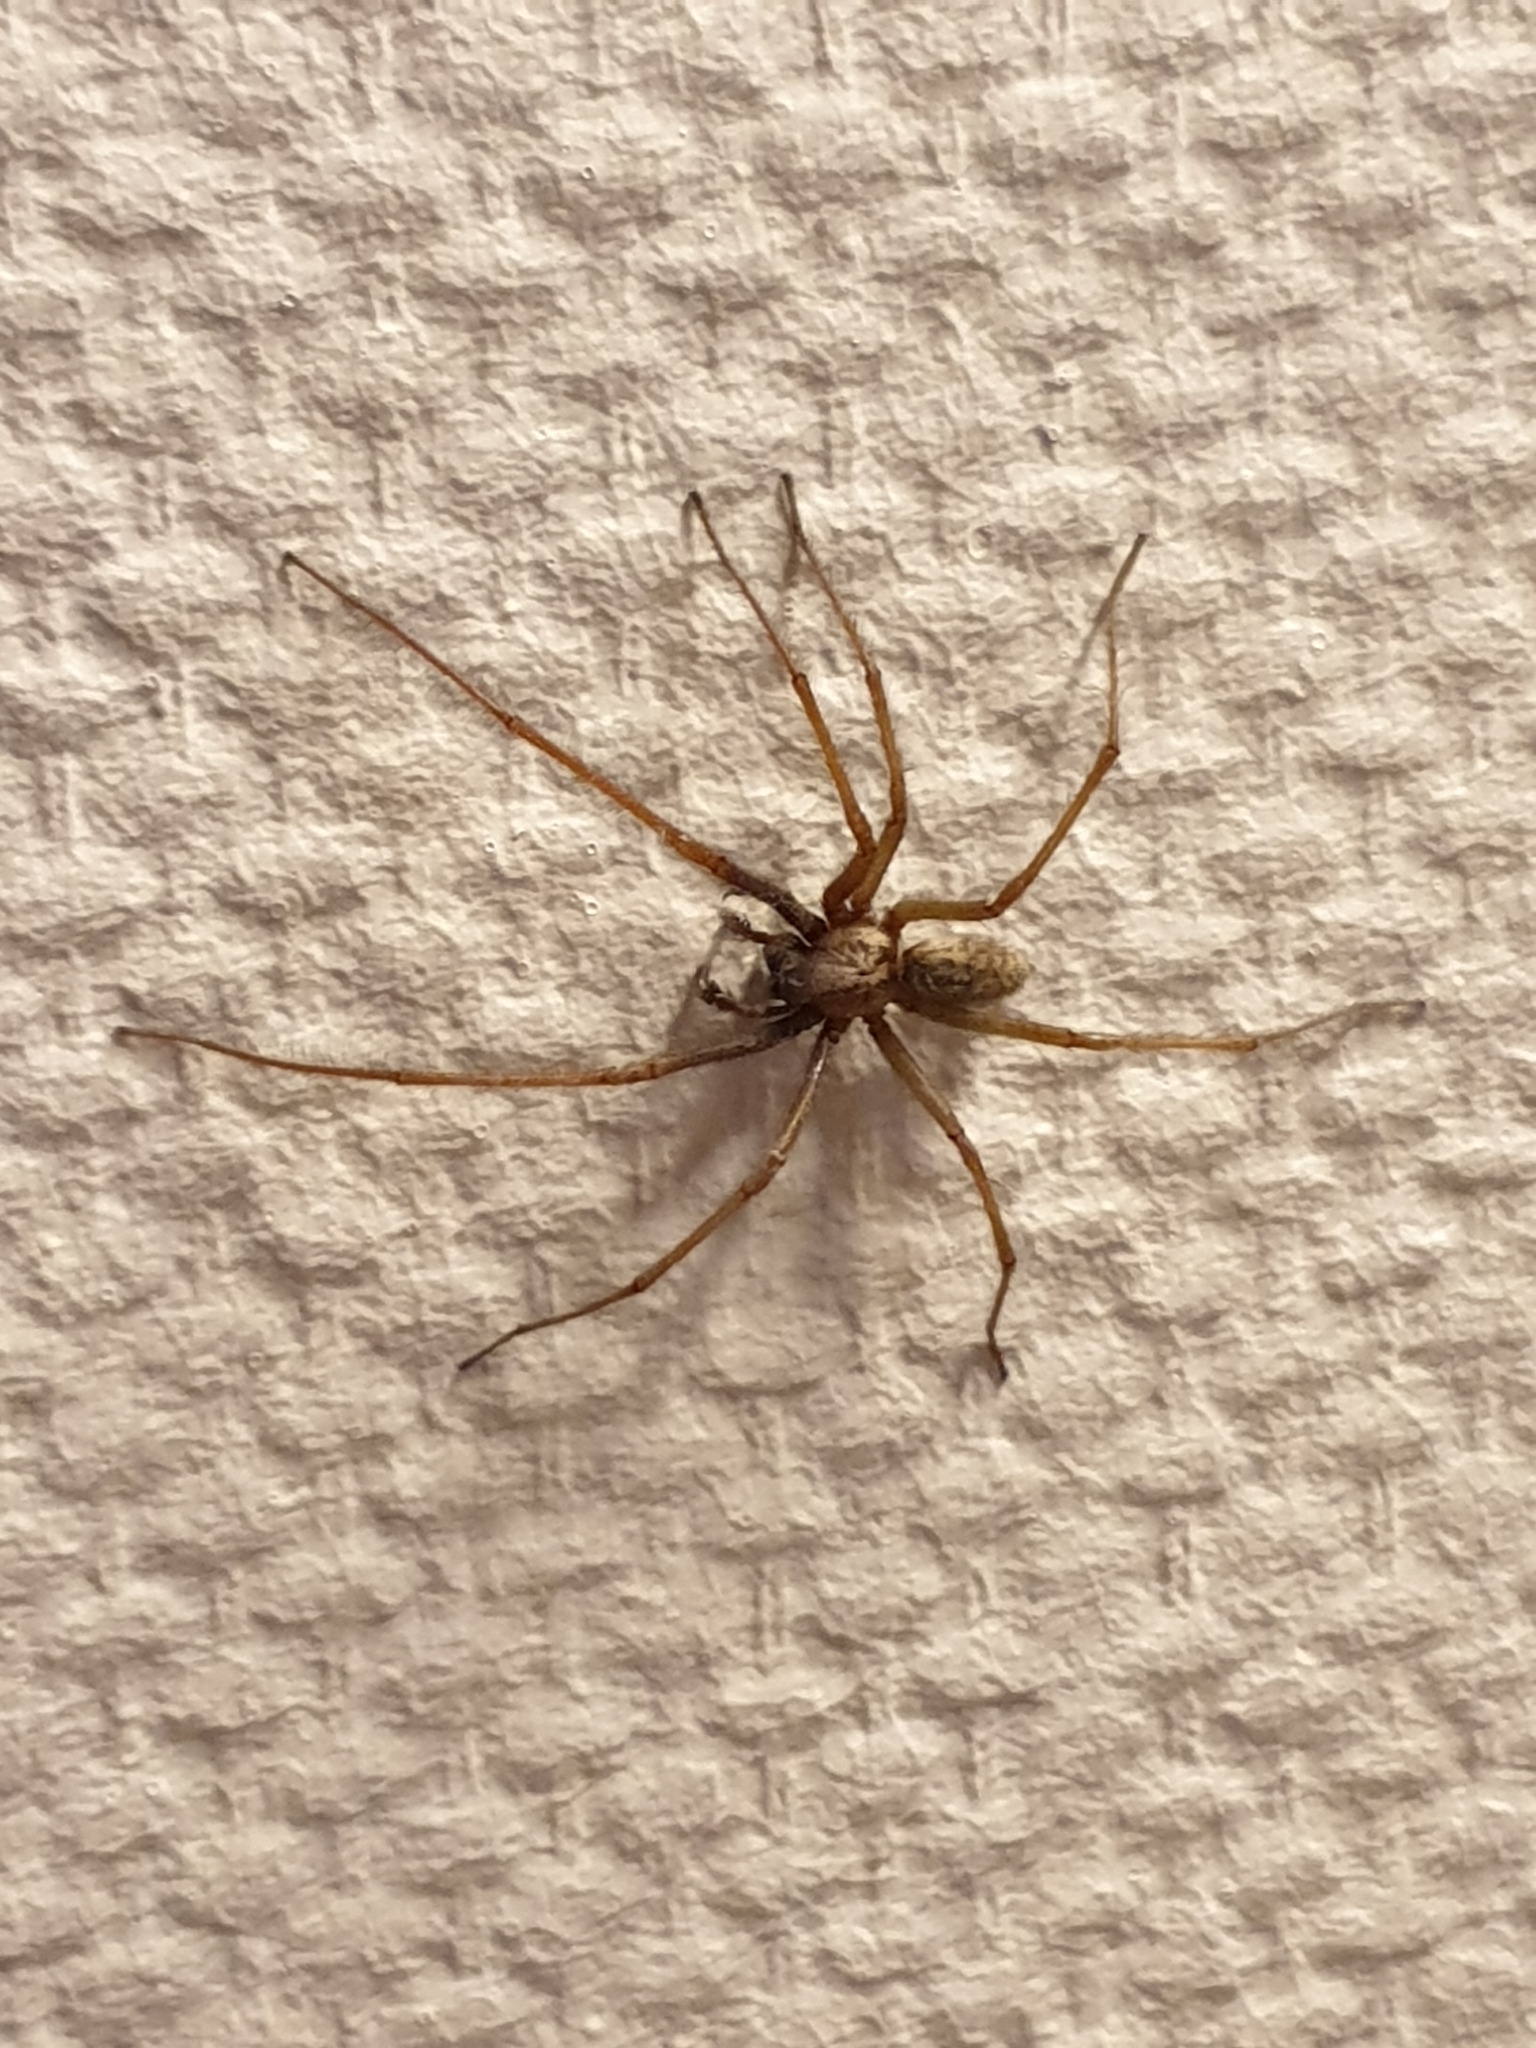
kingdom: Animalia
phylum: Arthropoda
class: Arachnida
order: Araneae
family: Agelenidae
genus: Eratigena
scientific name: Eratigena atrica
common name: Giant house spider
